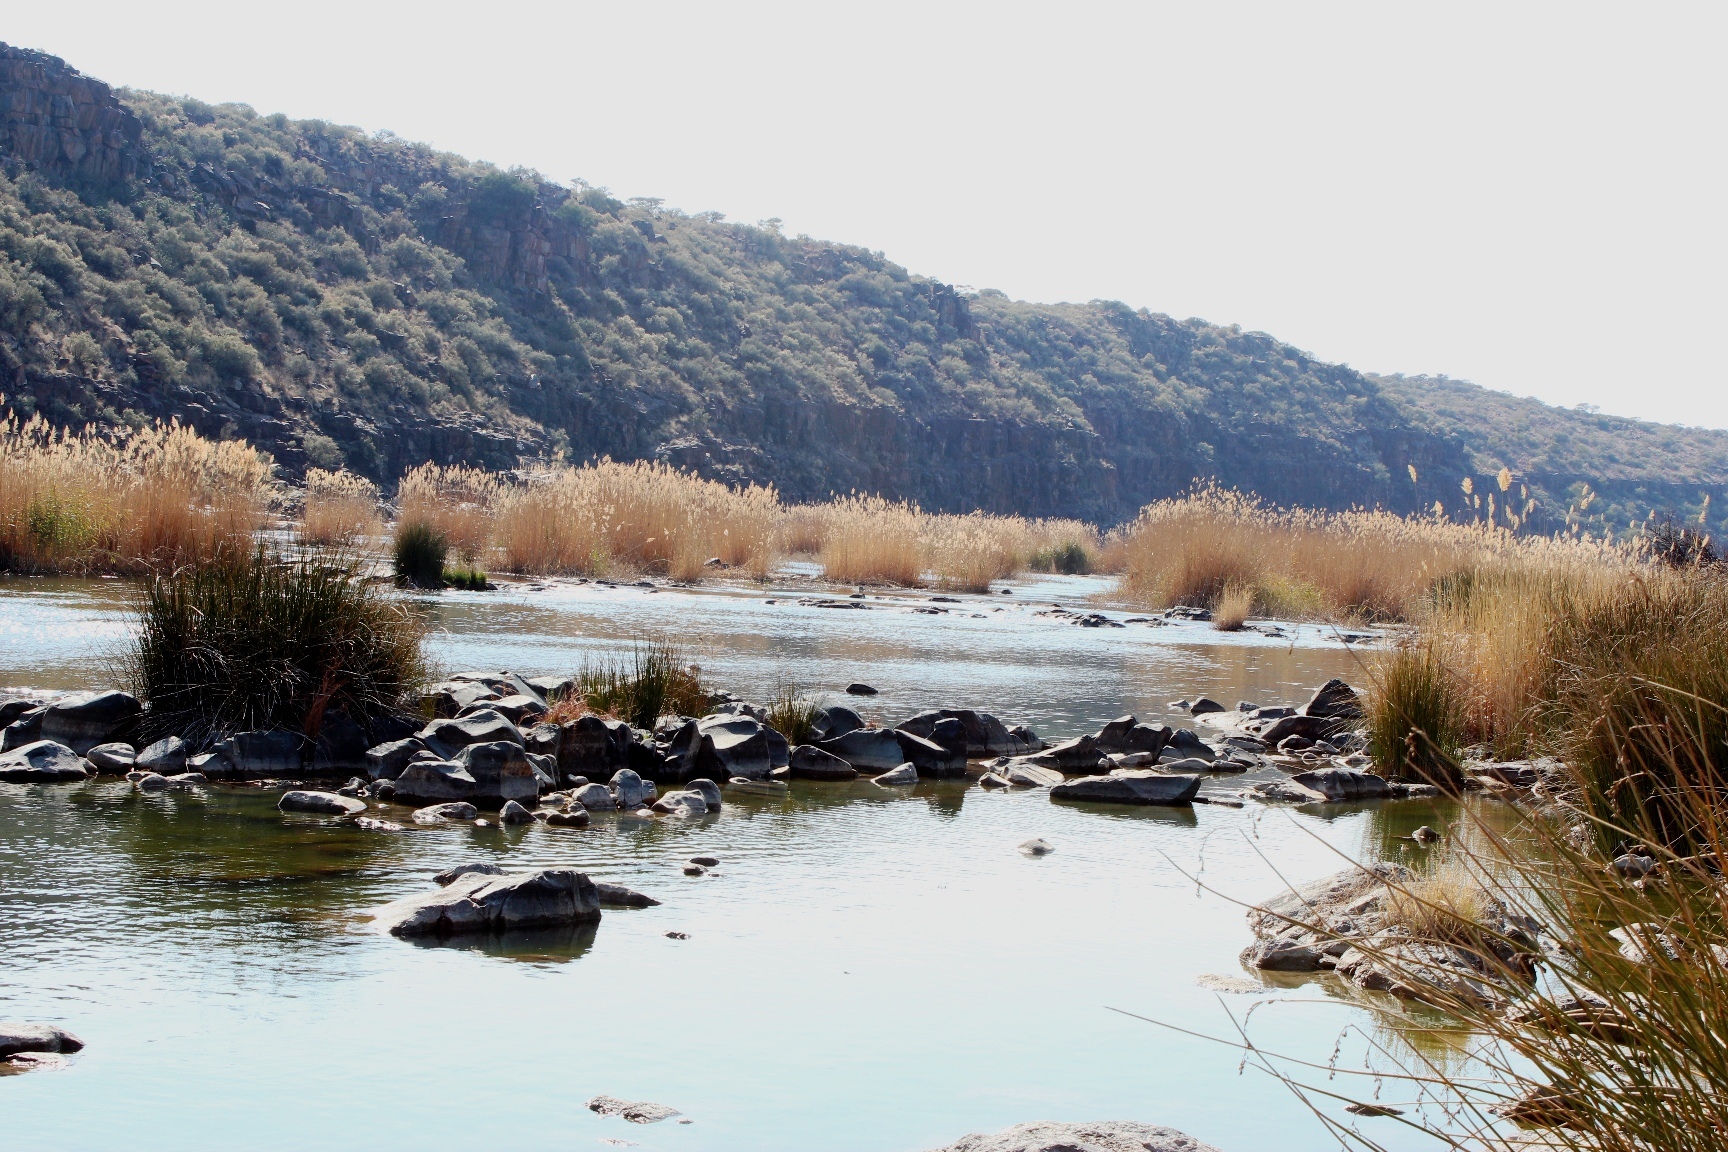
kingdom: Plantae
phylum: Tracheophyta
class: Liliopsida
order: Poales
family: Poaceae
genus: Phragmites
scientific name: Phragmites australis
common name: Common reed
